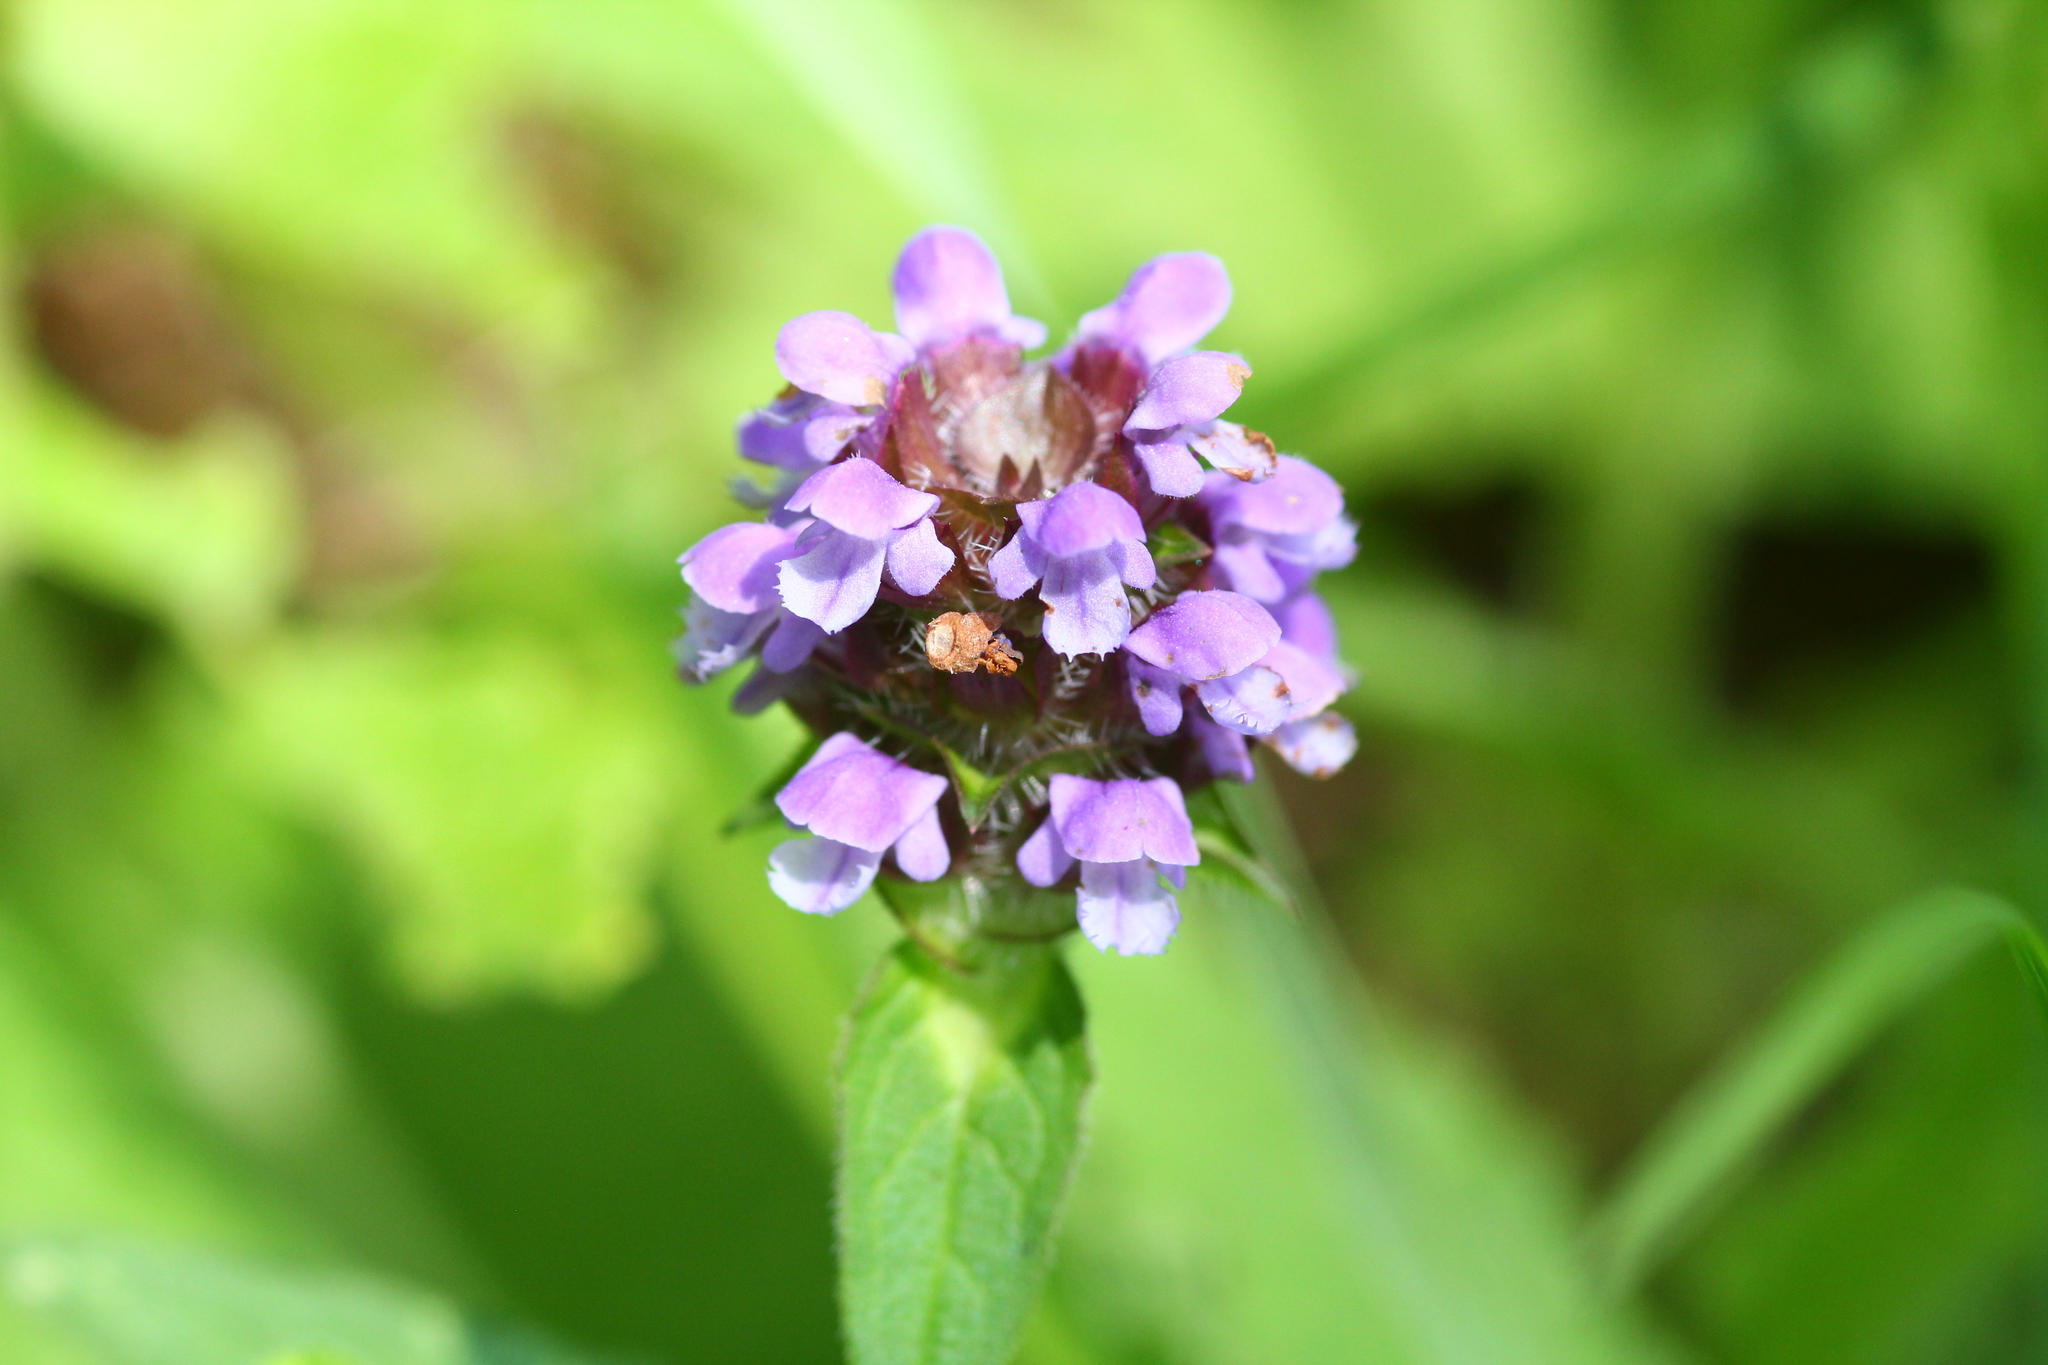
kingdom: Plantae
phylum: Tracheophyta
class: Magnoliopsida
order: Lamiales
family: Lamiaceae
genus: Prunella
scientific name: Prunella vulgaris
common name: Heal-all
